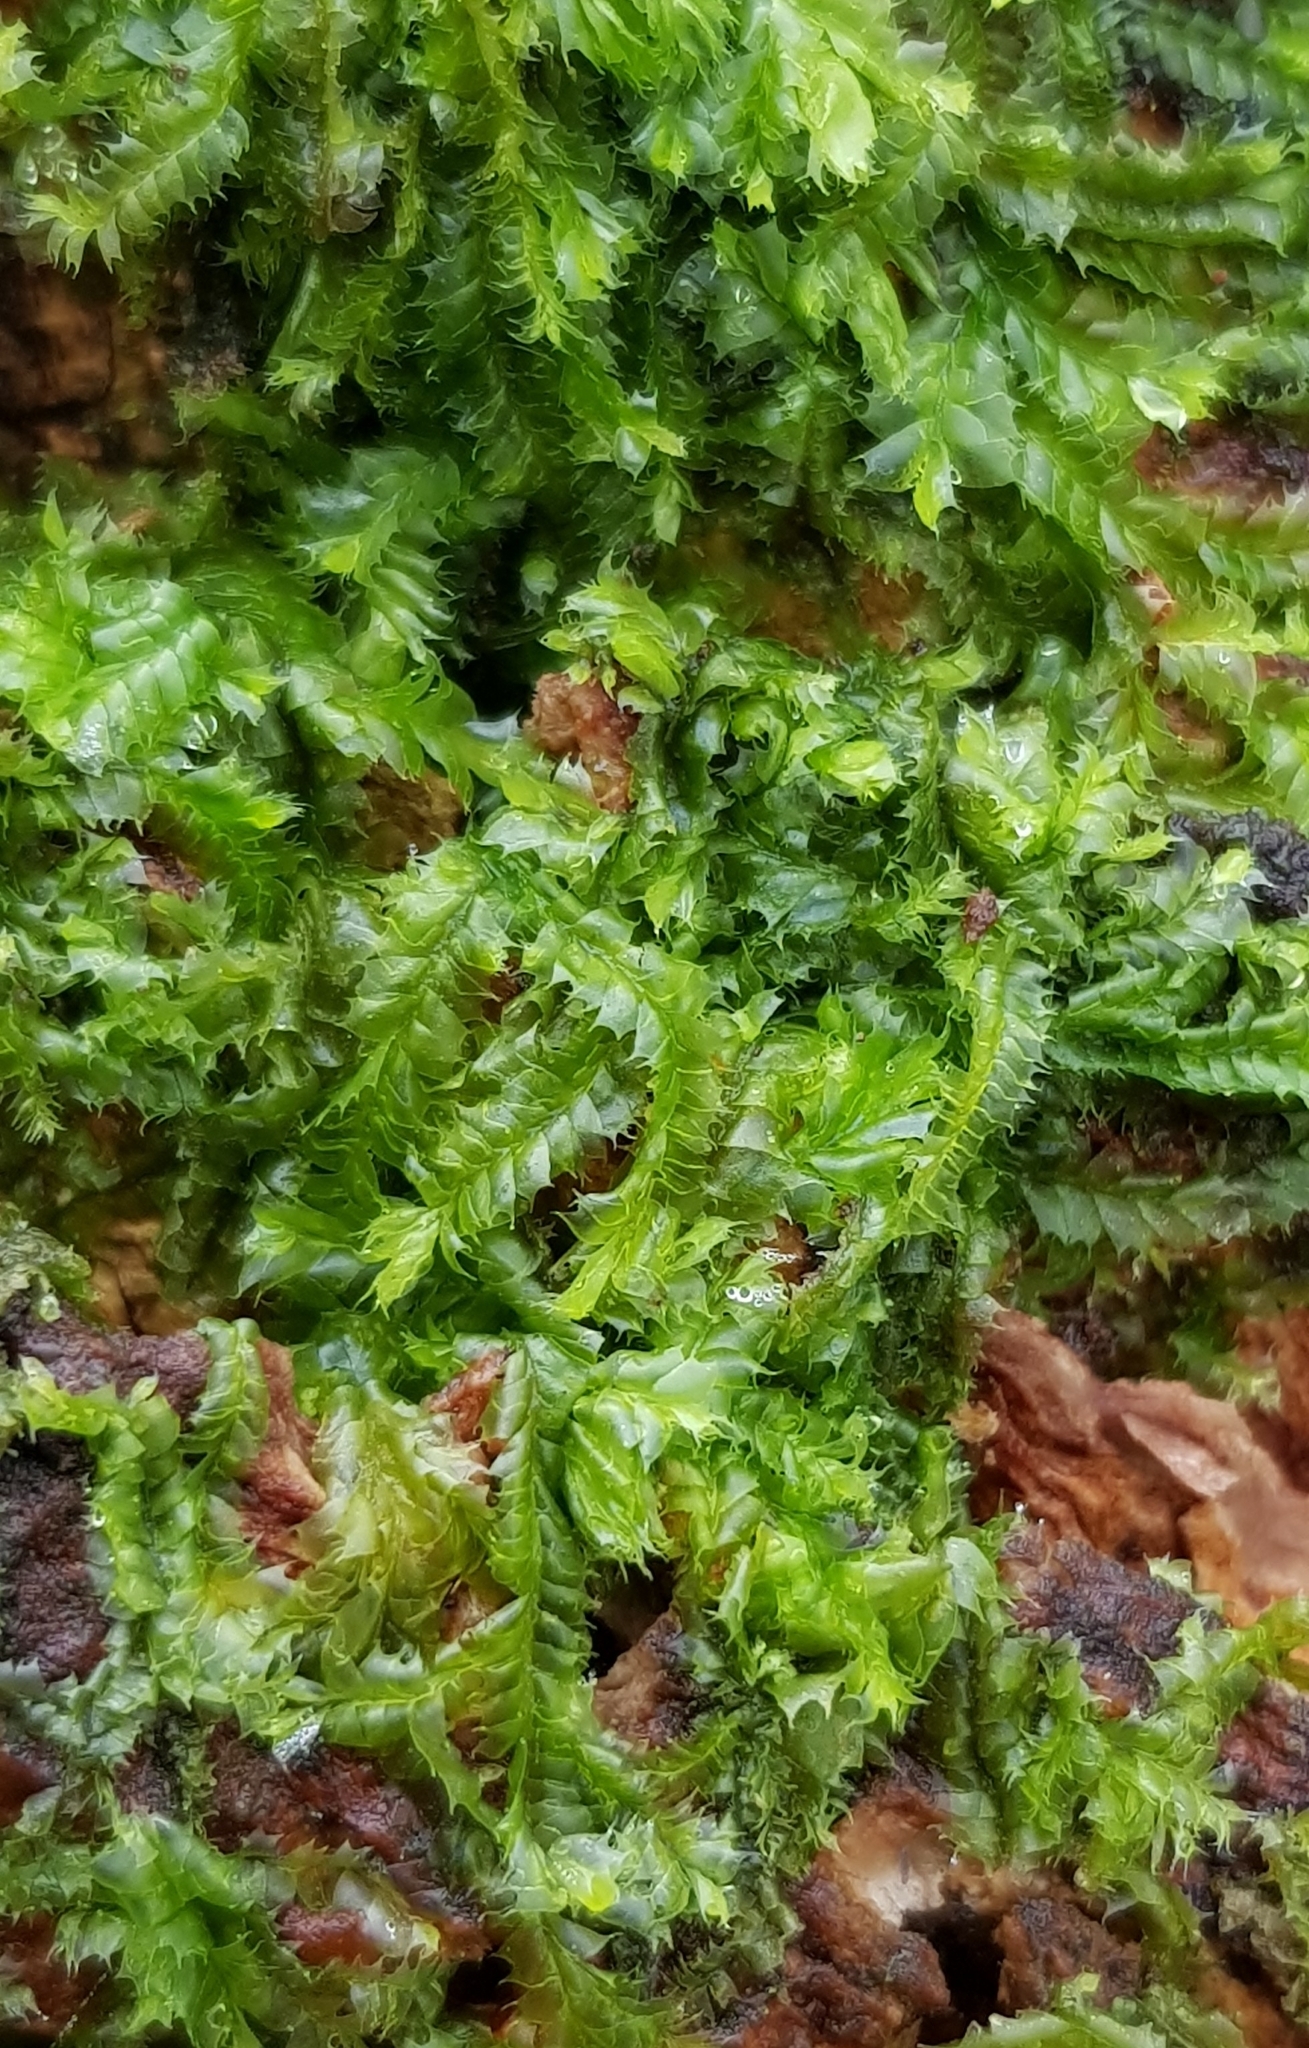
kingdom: Plantae
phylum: Marchantiophyta
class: Jungermanniopsida
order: Jungermanniales
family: Lophocoleaceae
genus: Lophocolea
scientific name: Lophocolea bidentata
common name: Bifid crestwort
